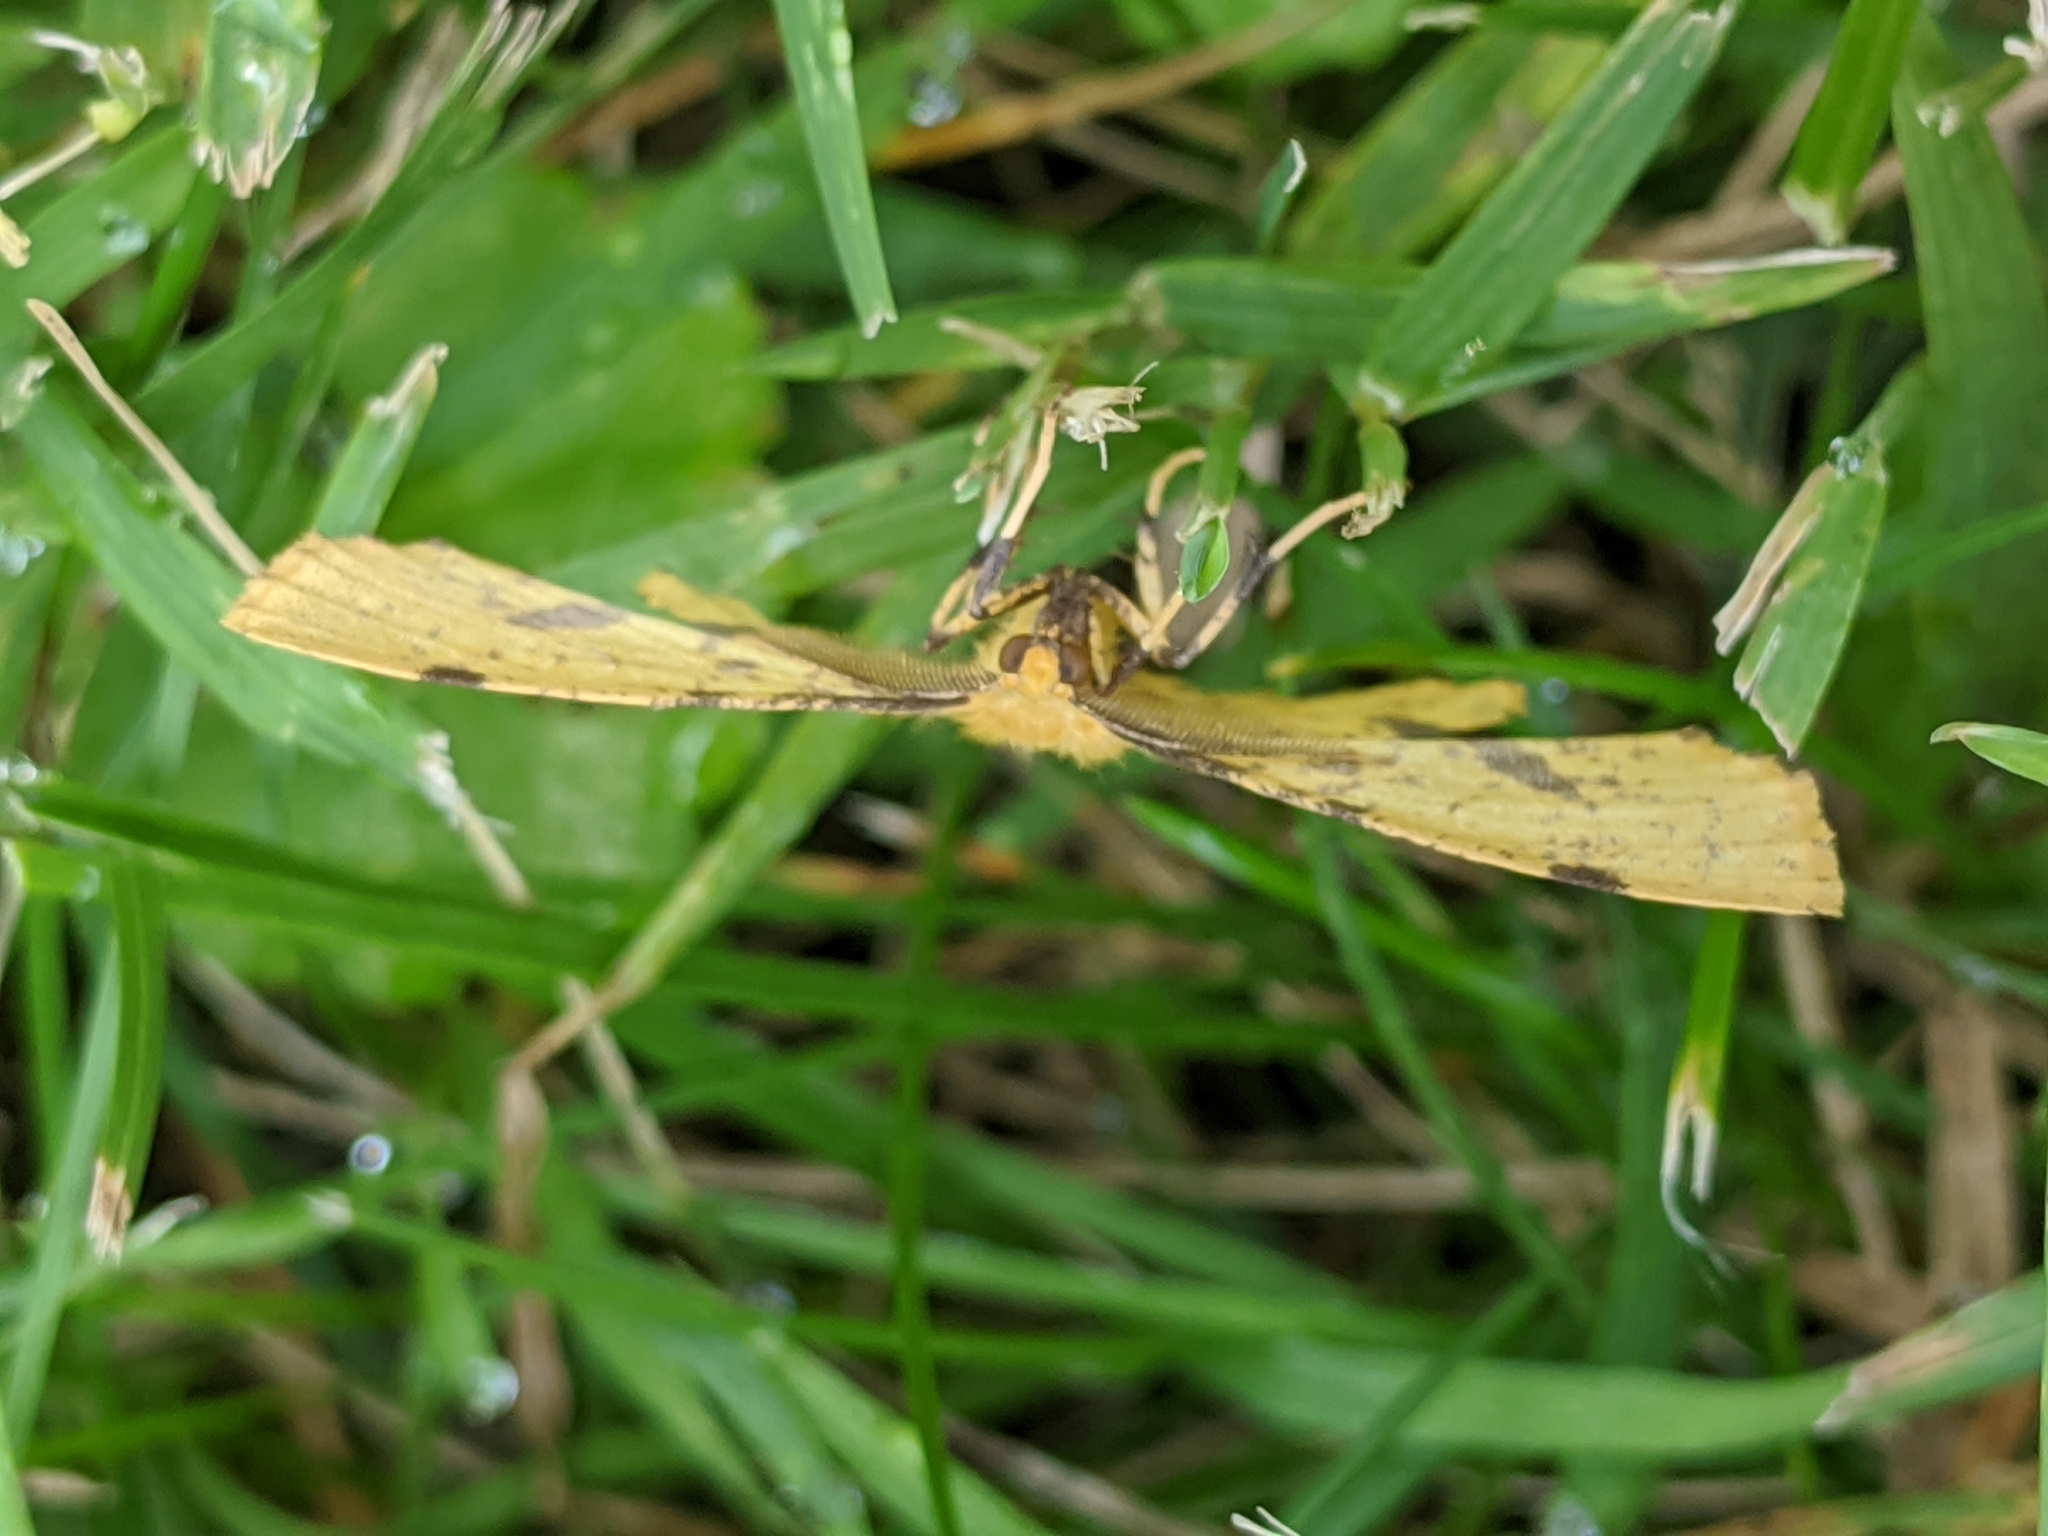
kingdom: Animalia
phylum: Arthropoda
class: Insecta
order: Lepidoptera
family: Geometridae
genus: Xanthotype
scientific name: Xanthotype
